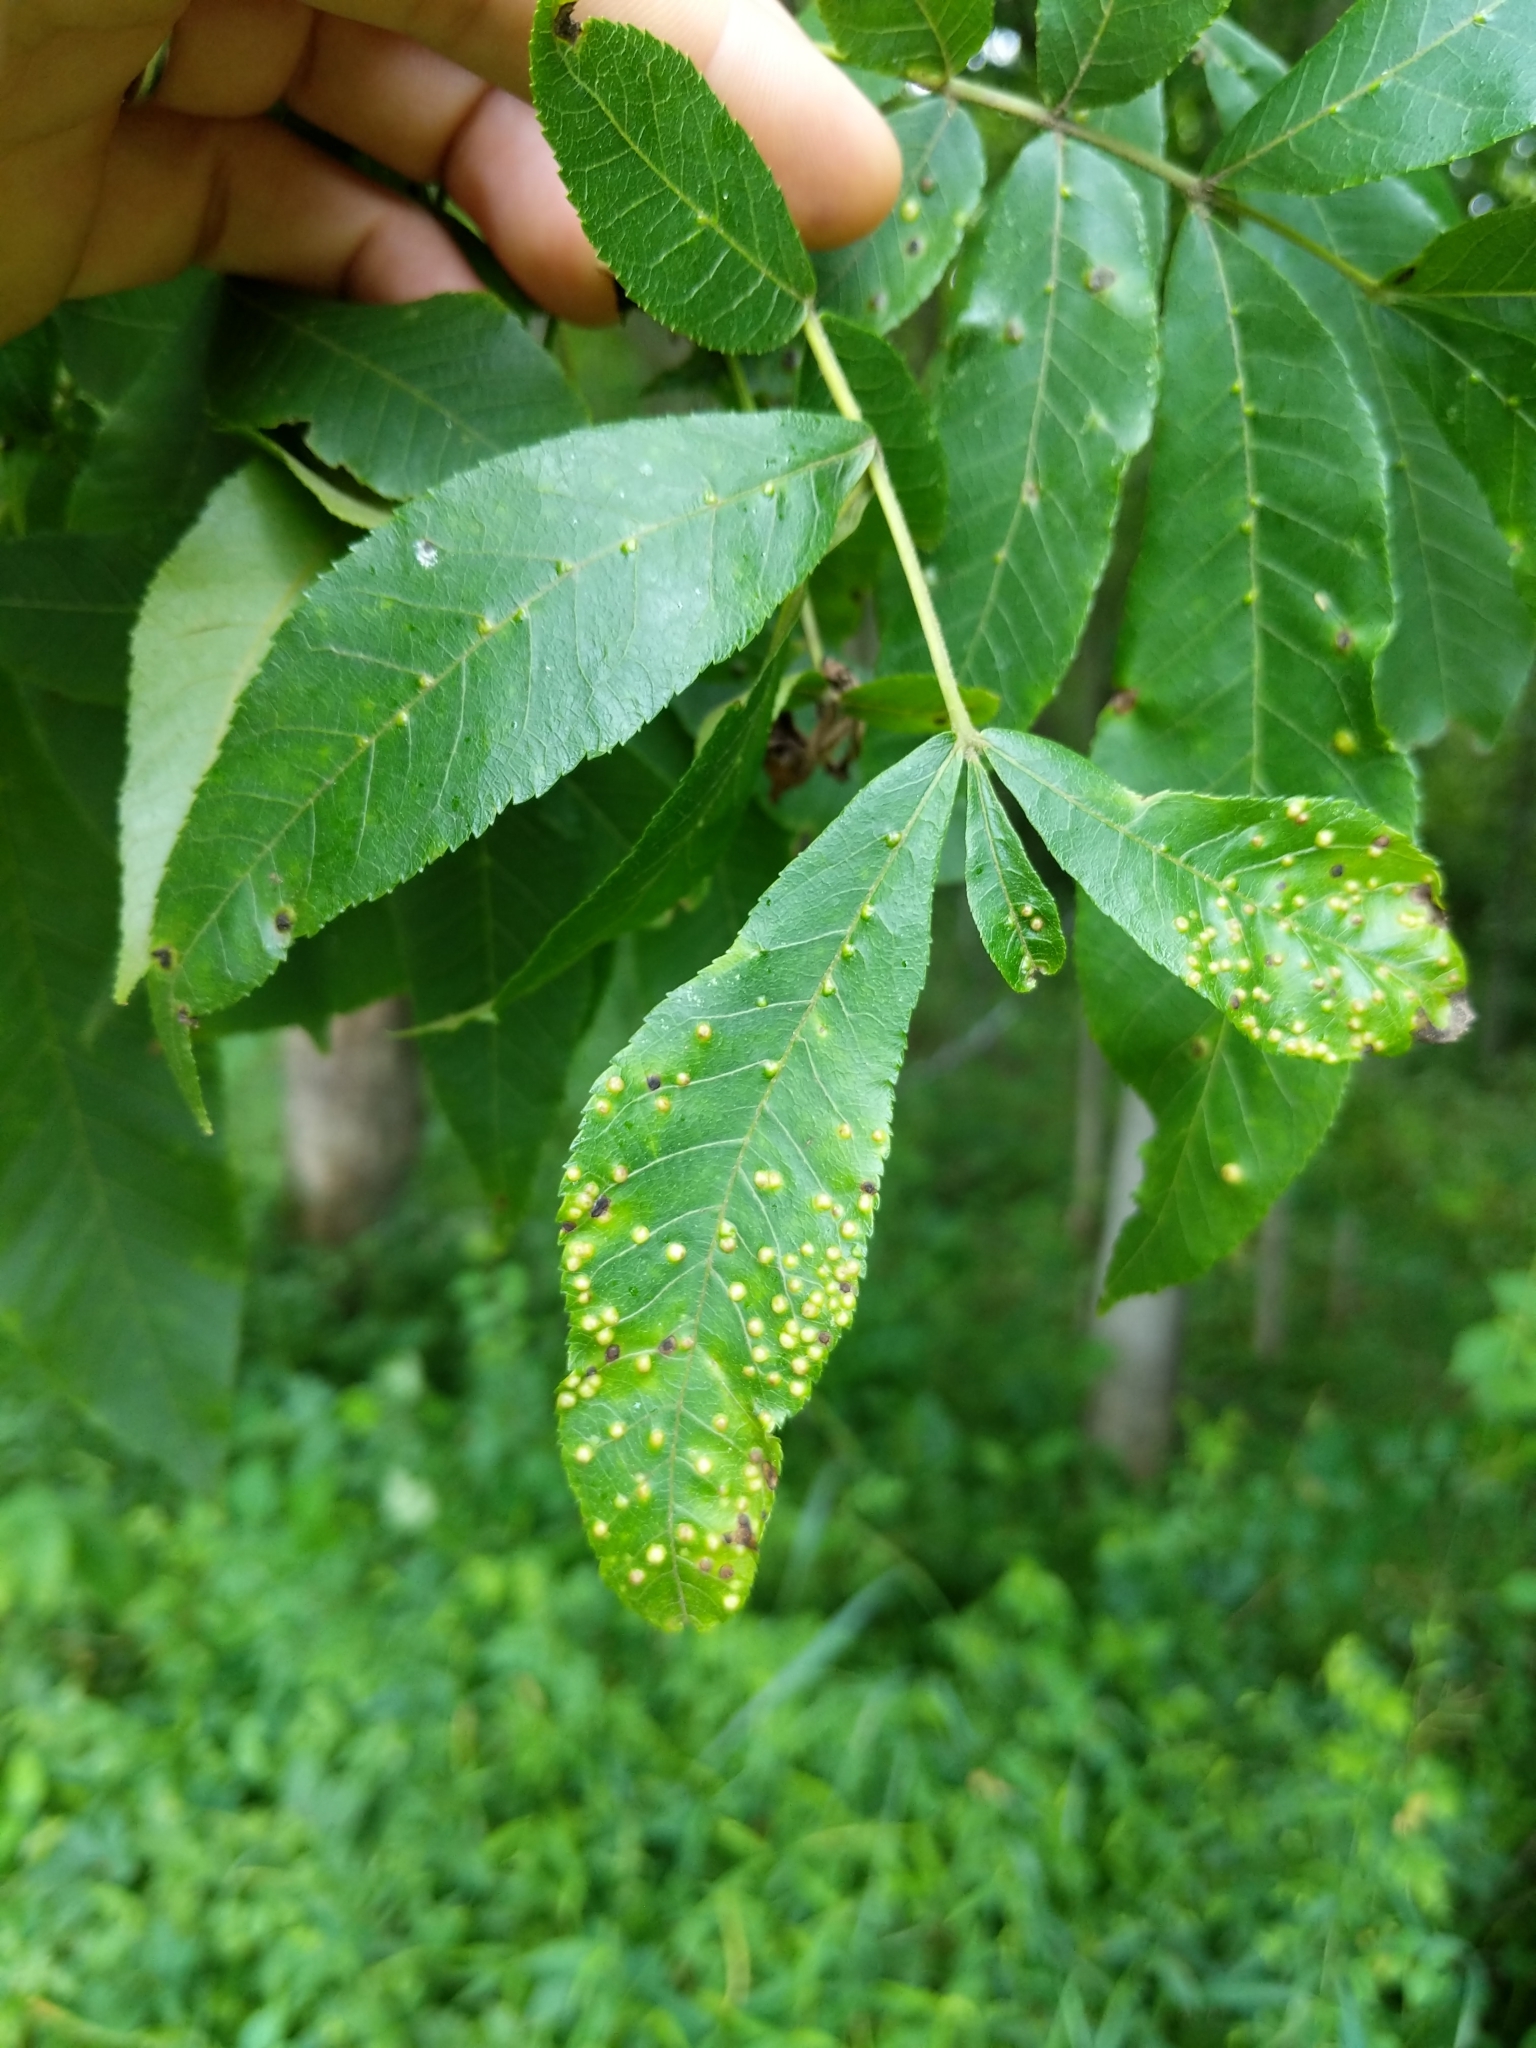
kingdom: Animalia
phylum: Arthropoda
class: Insecta
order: Hemiptera
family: Phylloxeridae
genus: Phylloxera
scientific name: Phylloxera caryae-semen
